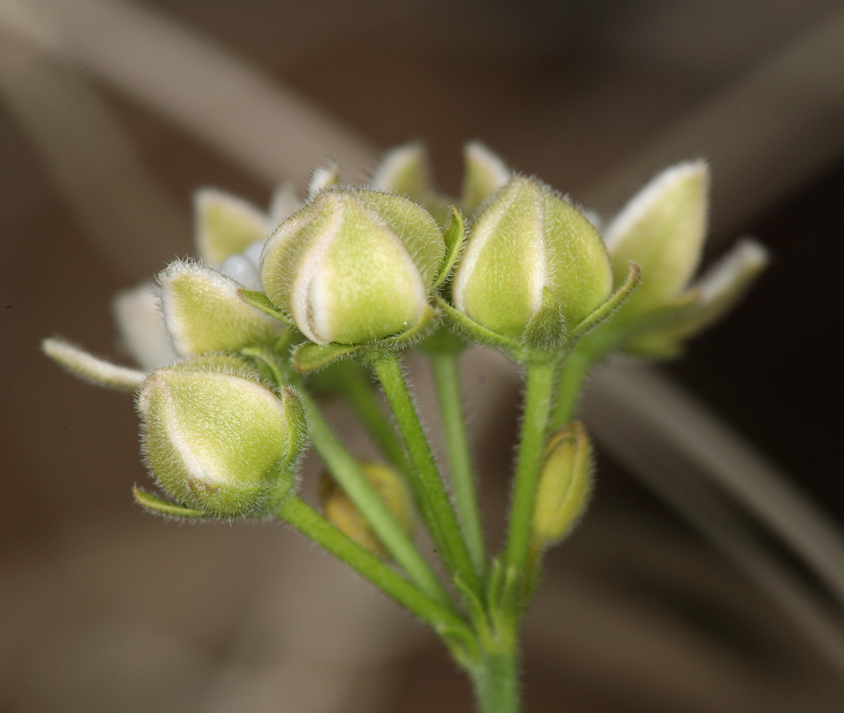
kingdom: Plantae
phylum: Tracheophyta
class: Magnoliopsida
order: Gentianales
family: Apocynaceae
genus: Funastrum
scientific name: Funastrum hirtellum
